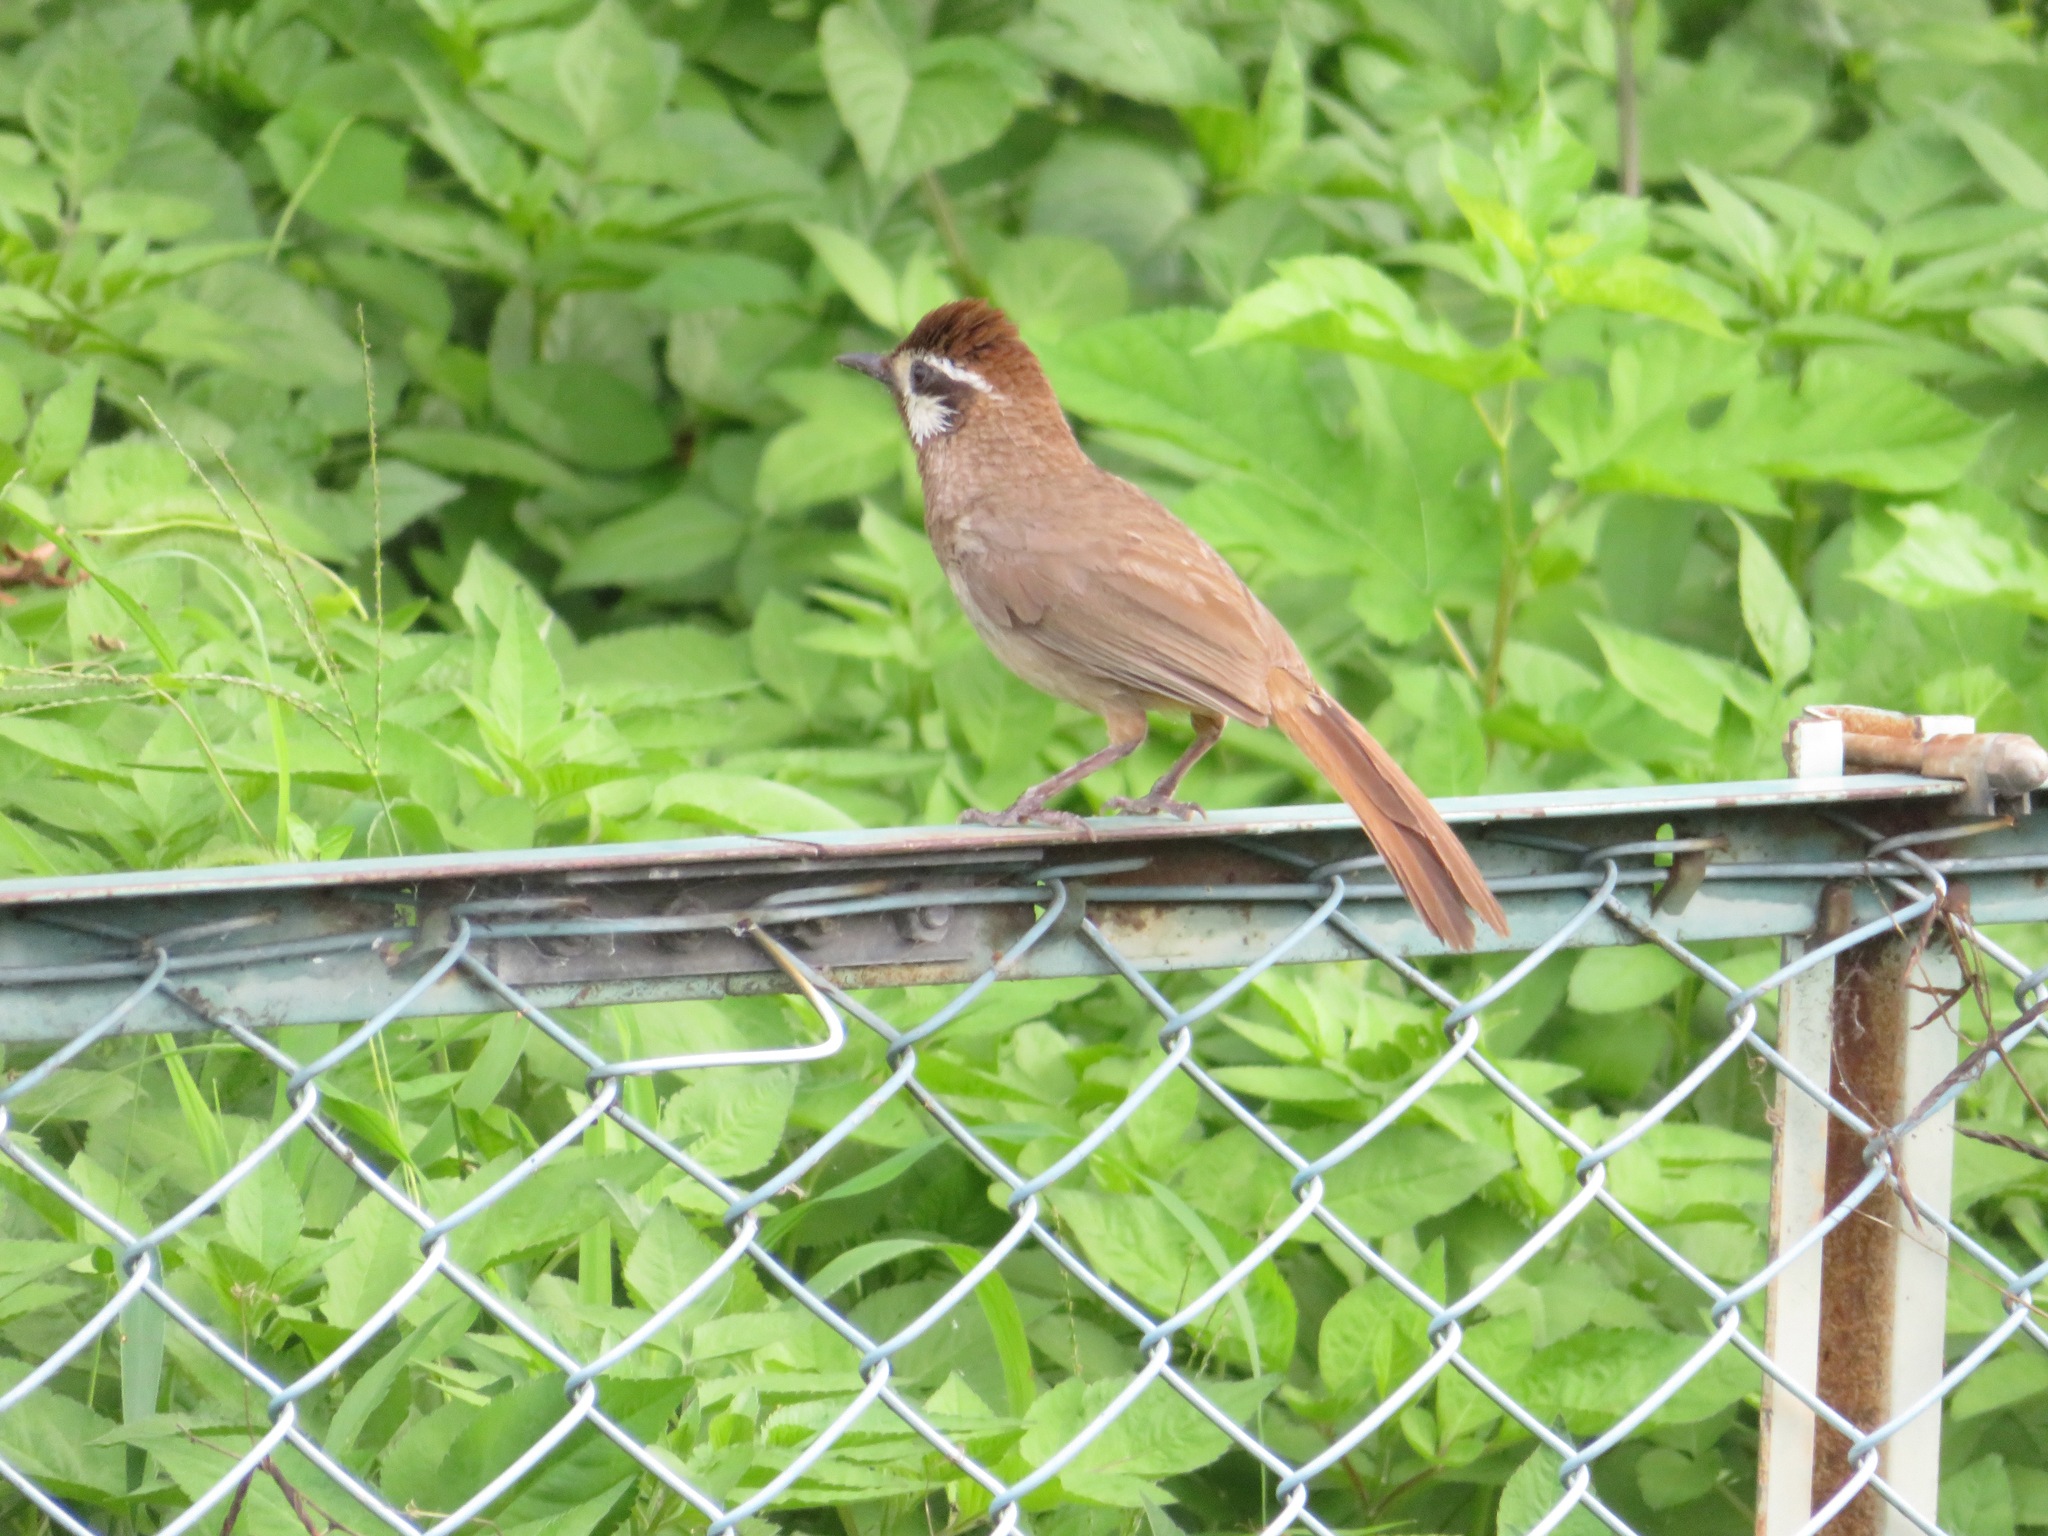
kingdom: Animalia
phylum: Chordata
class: Aves
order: Passeriformes
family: Leiothrichidae
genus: Pterorhinus
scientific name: Pterorhinus sannio
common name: White-browed laughingthrush
